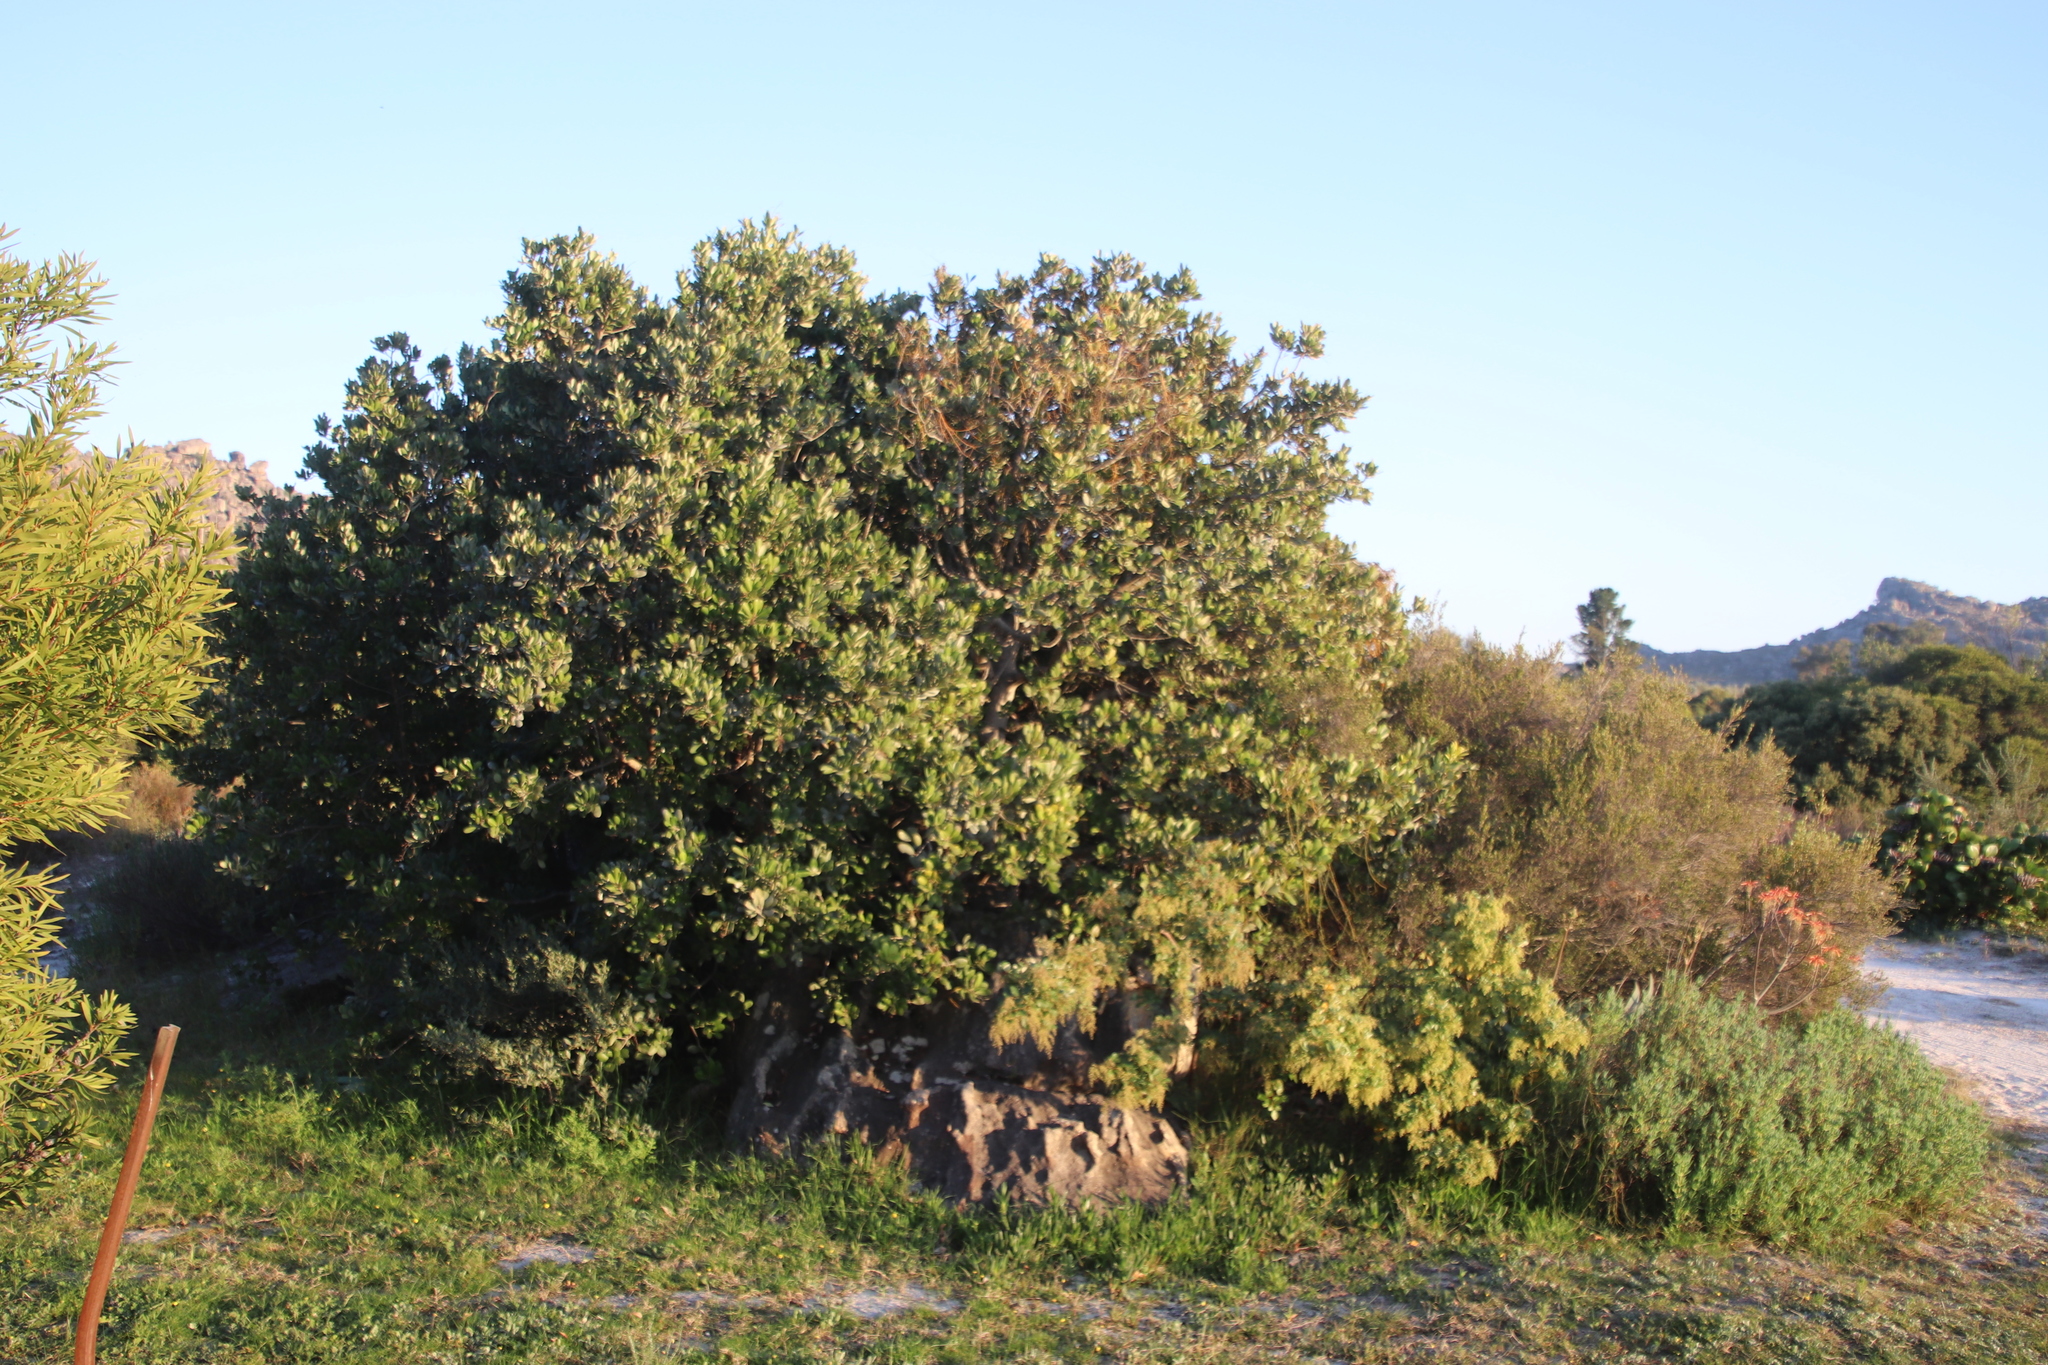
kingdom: Plantae
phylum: Tracheophyta
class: Magnoliopsida
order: Sapindales
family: Anacardiaceae
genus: Searsia
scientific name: Searsia tomentosa
